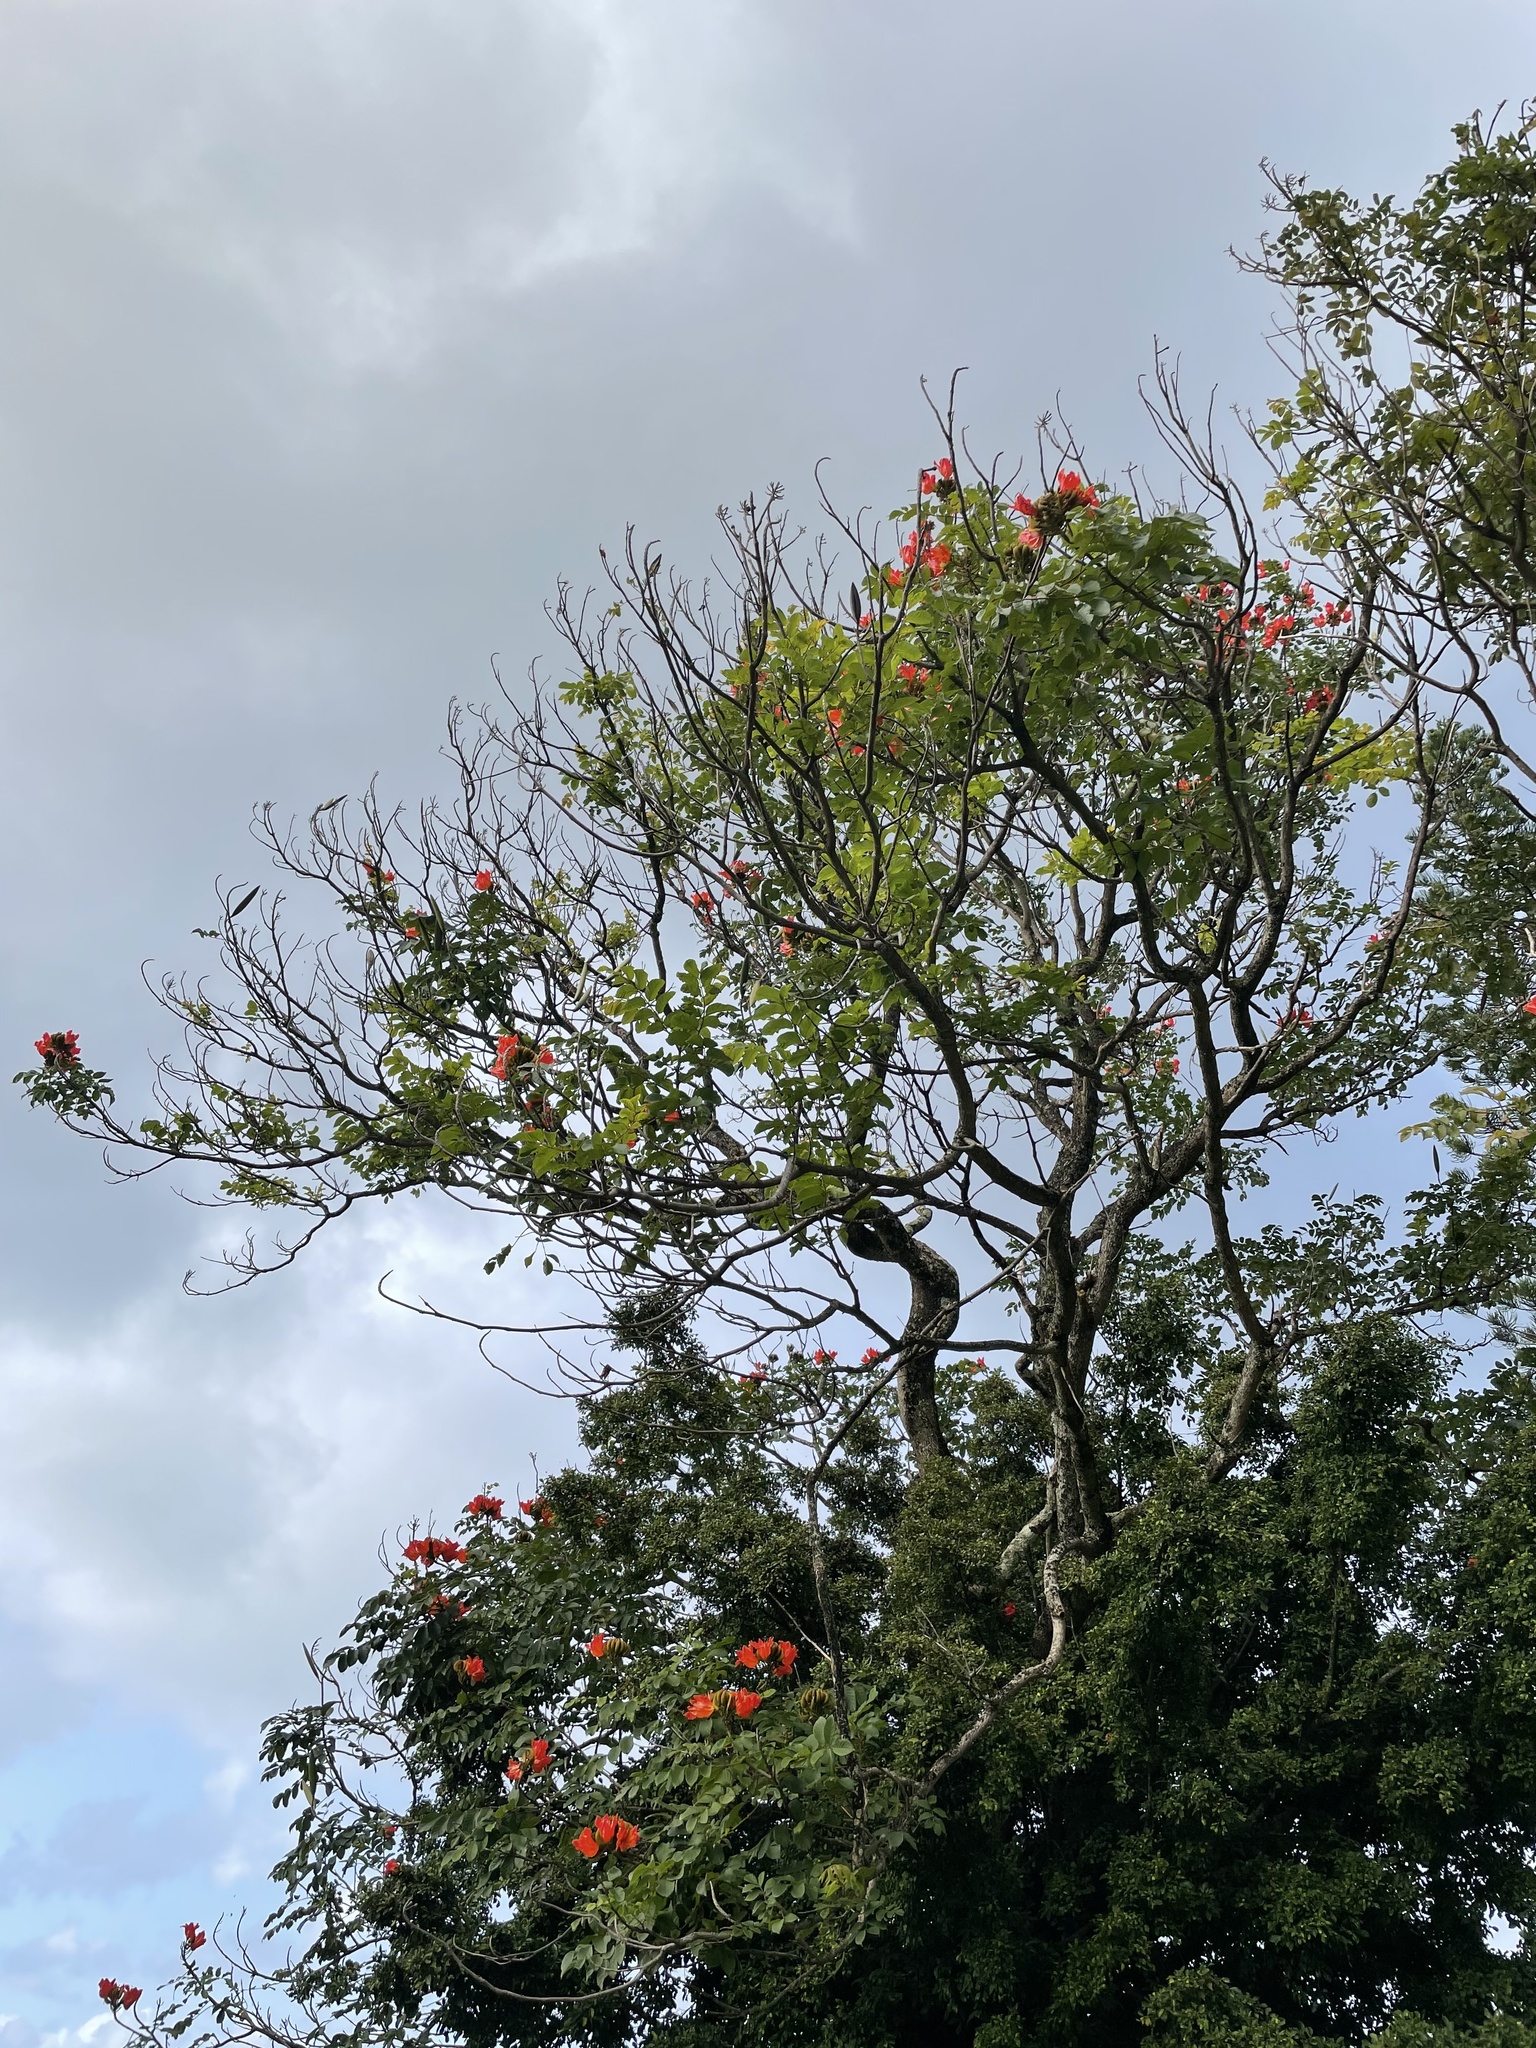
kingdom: Plantae
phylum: Tracheophyta
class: Magnoliopsida
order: Lamiales
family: Bignoniaceae
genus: Spathodea
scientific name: Spathodea campanulata
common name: African tuliptree
